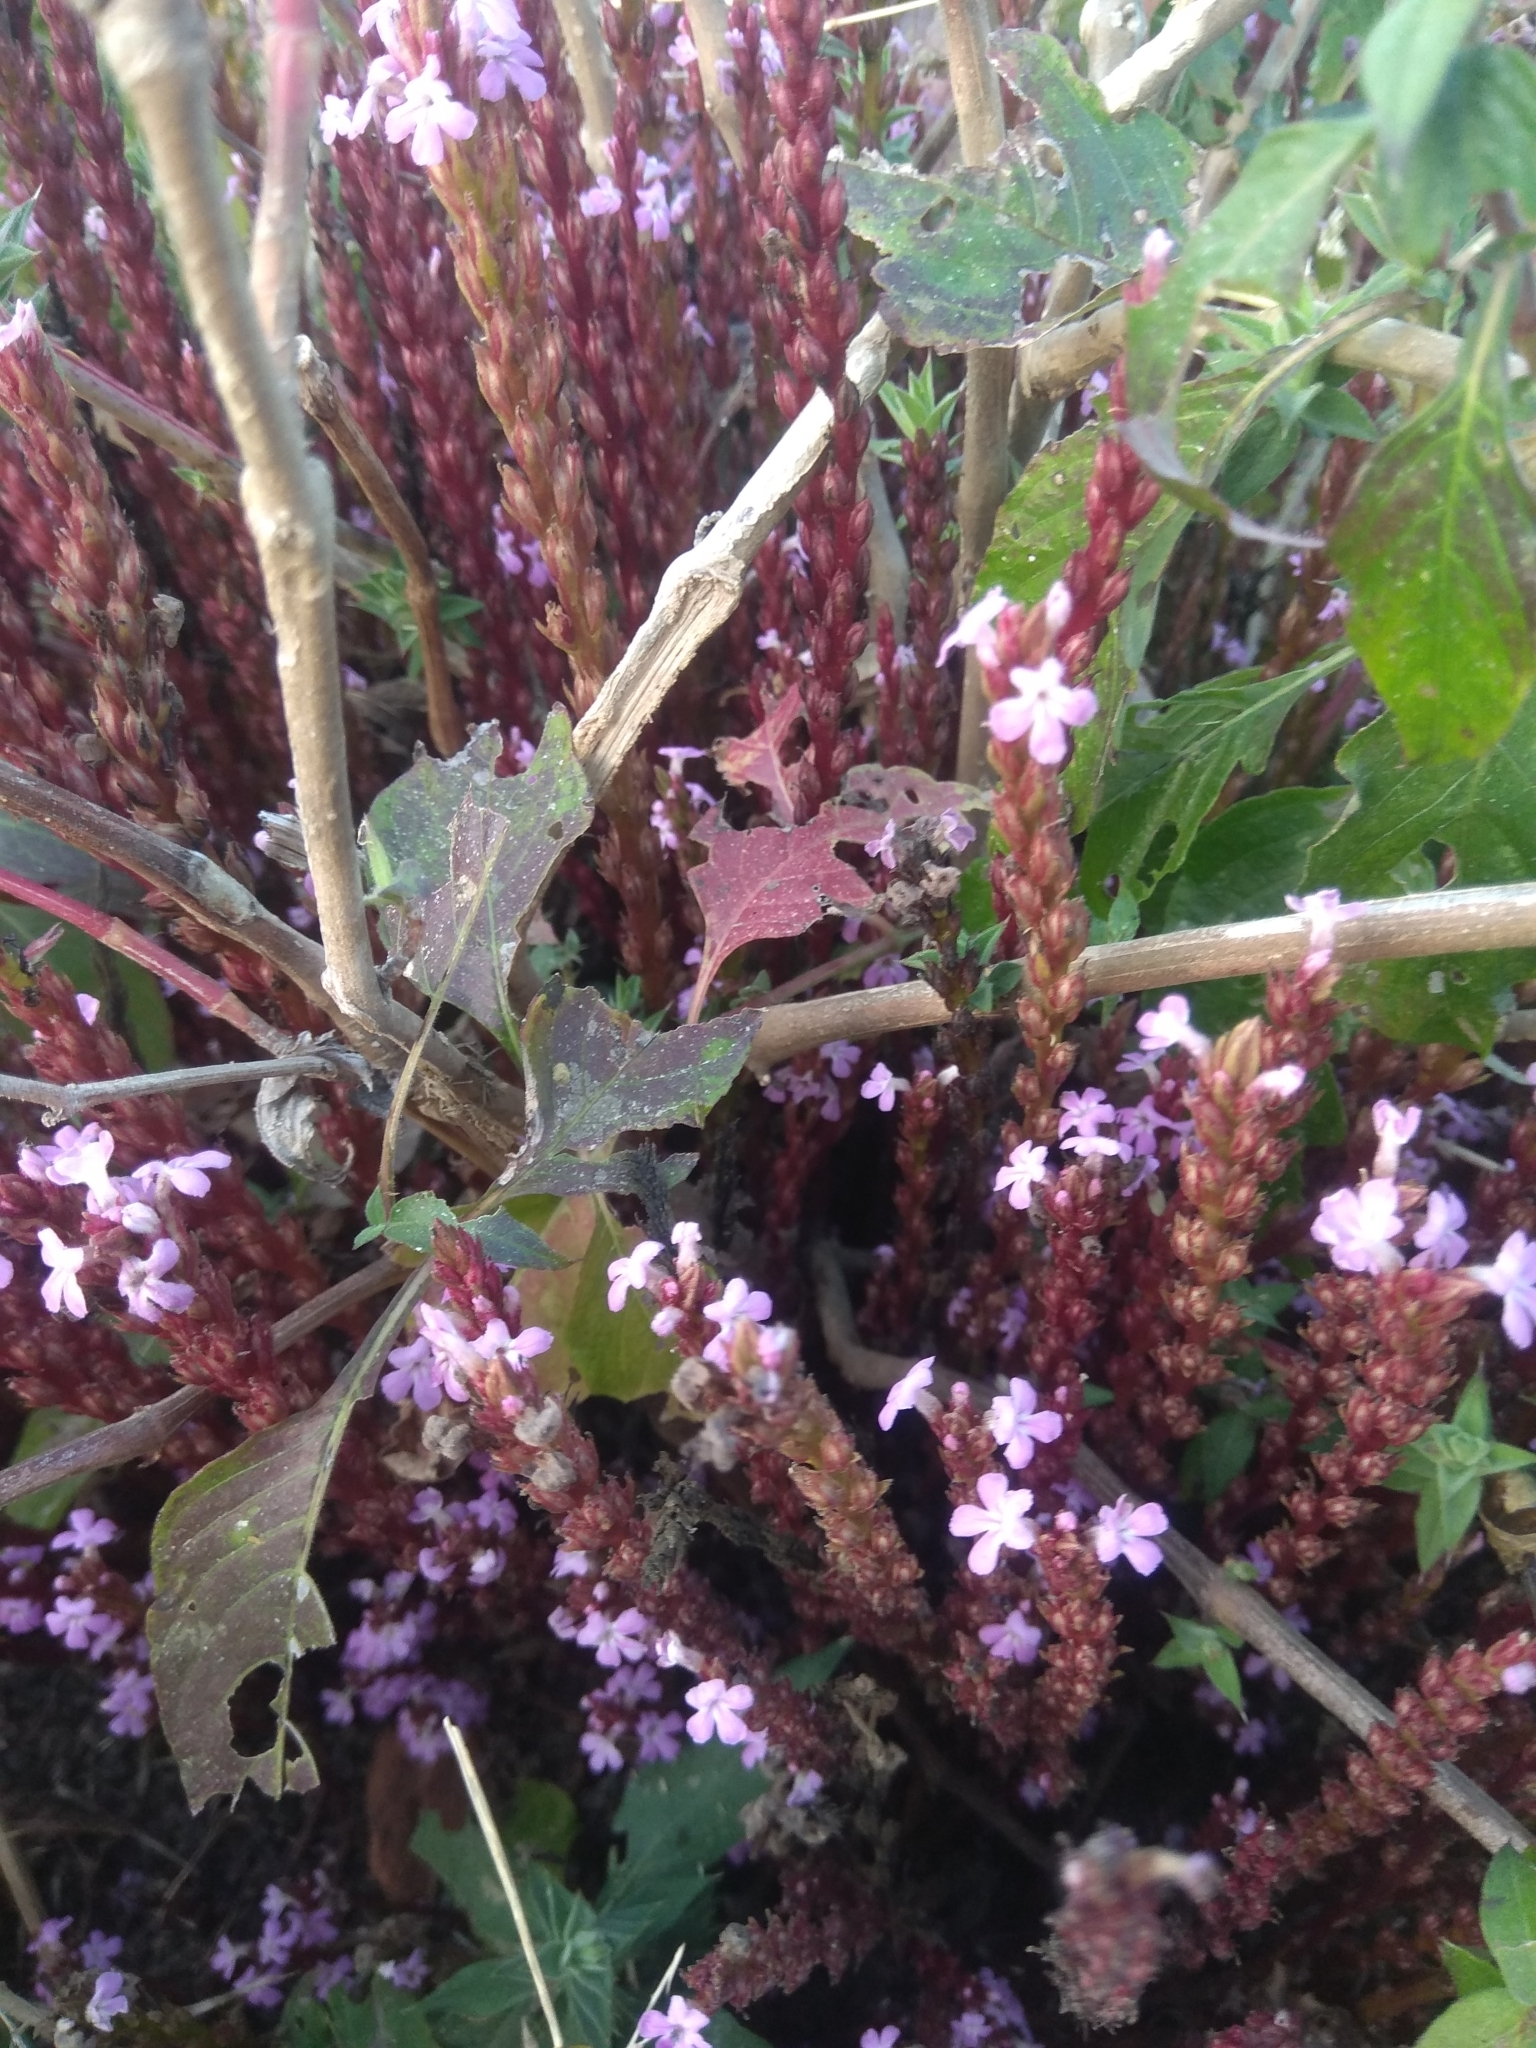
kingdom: Plantae
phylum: Tracheophyta
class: Magnoliopsida
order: Lamiales
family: Orobanchaceae
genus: Striga
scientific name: Striga gesnerioides
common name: Cowpea witchweed
